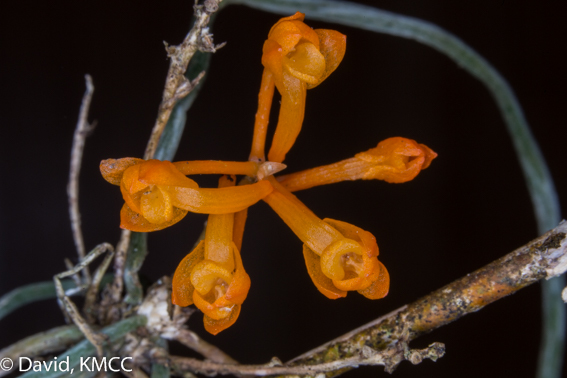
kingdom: Plantae
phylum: Tracheophyta
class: Liliopsida
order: Asparagales
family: Orchidaceae
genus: Microcoelia
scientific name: Microcoelia gilpiniae
